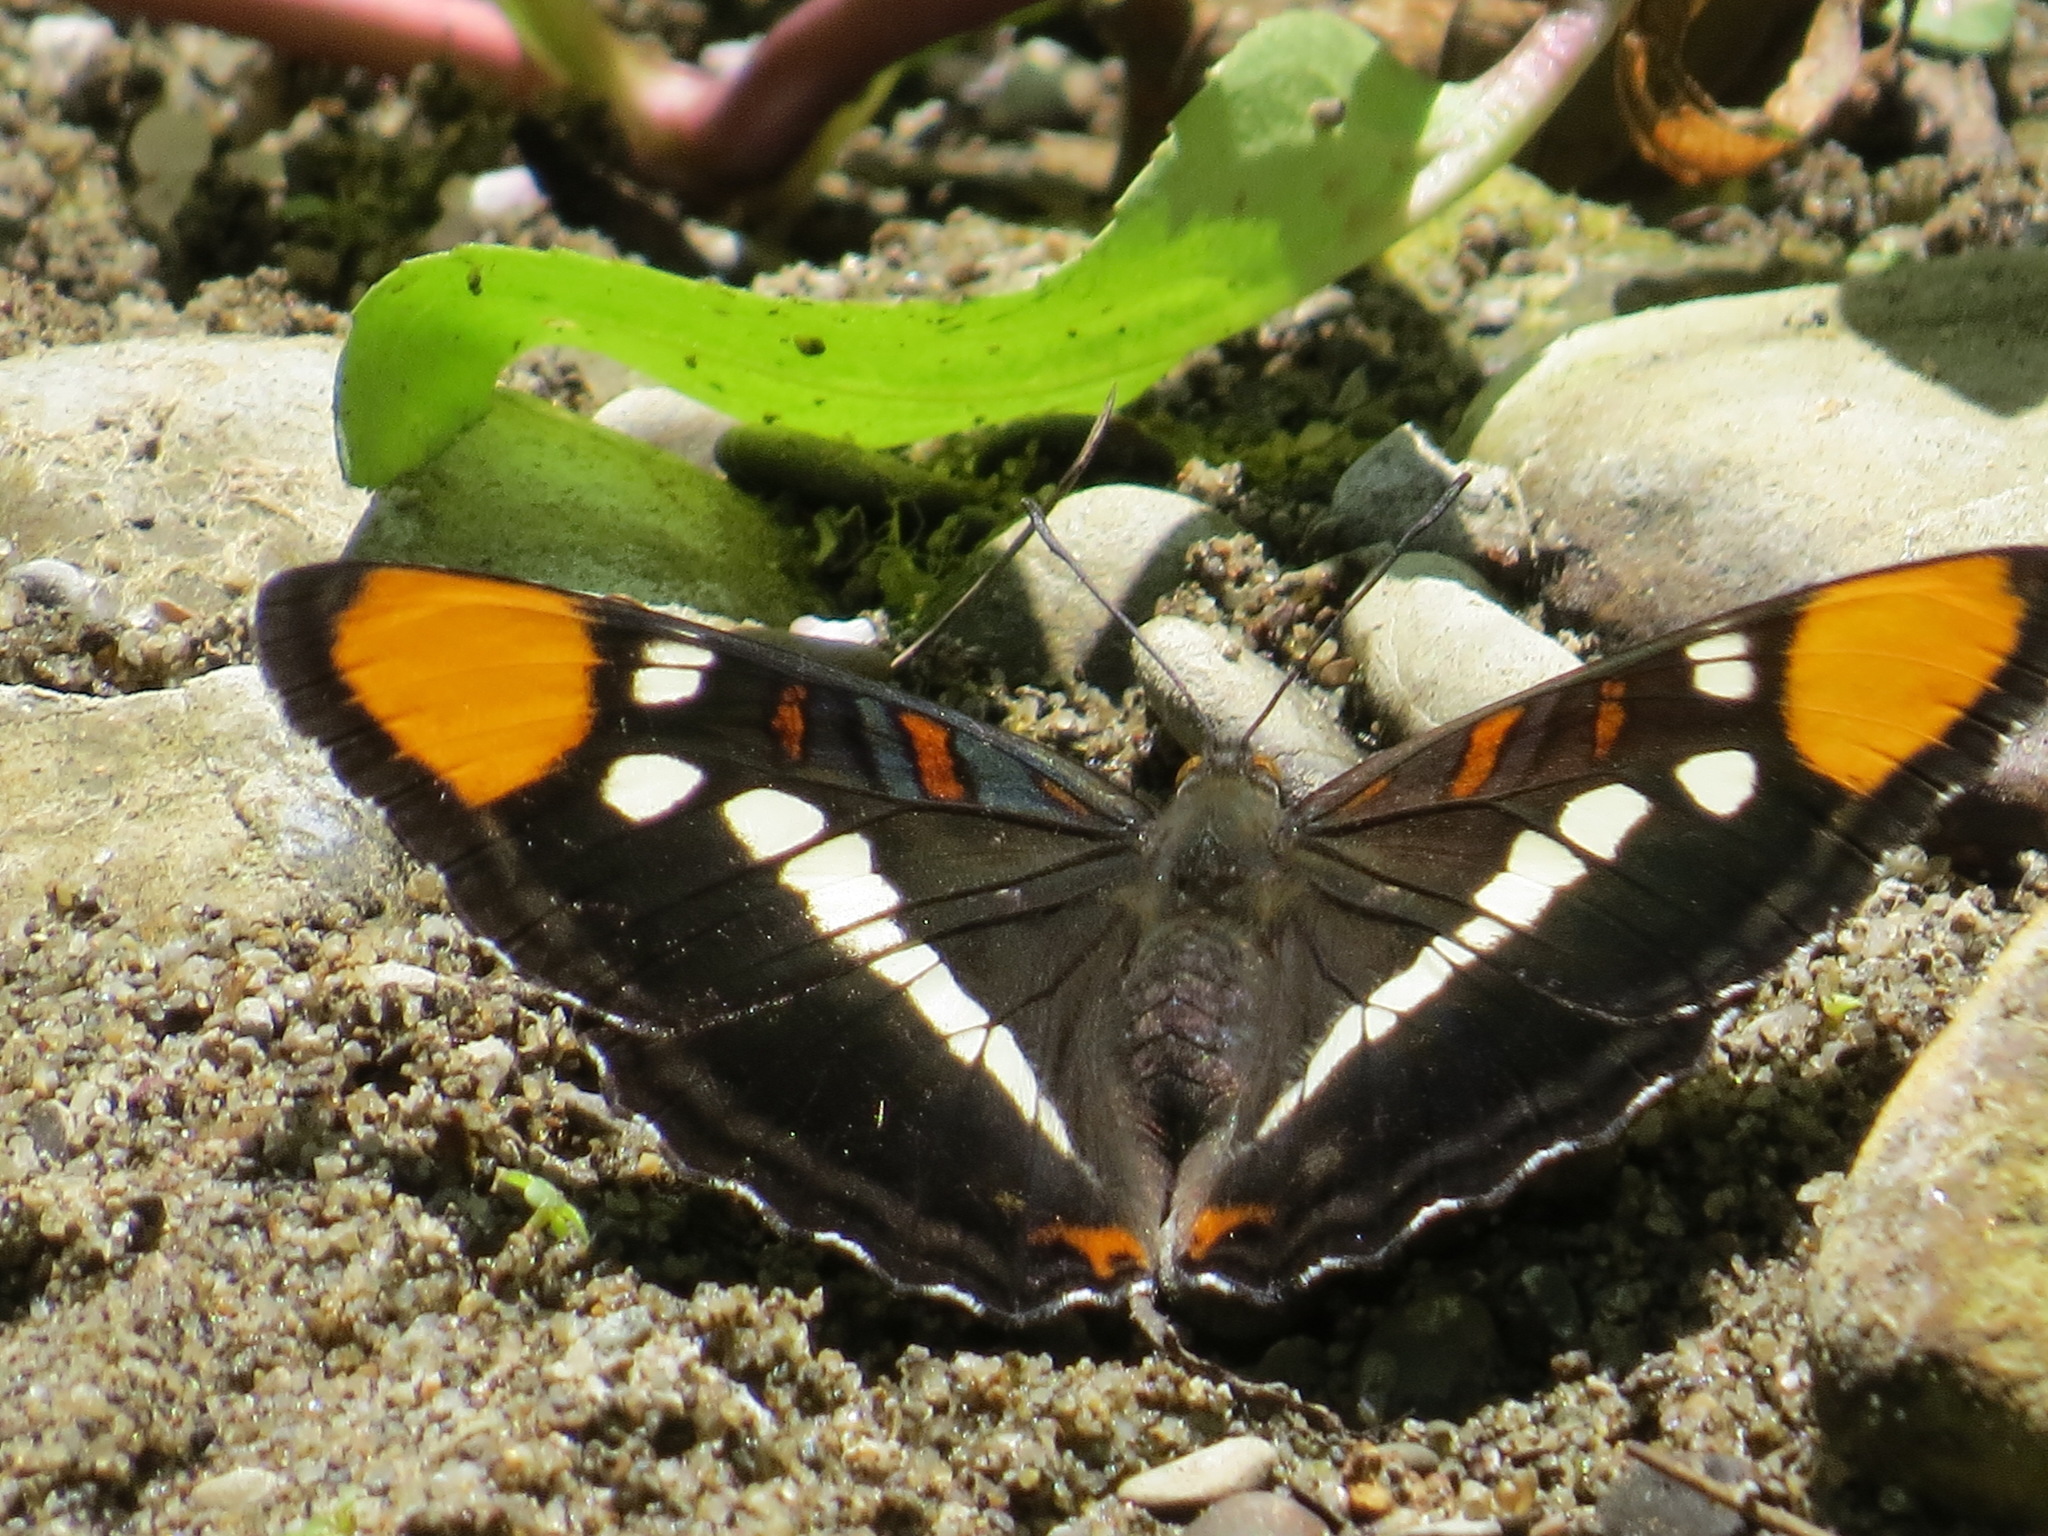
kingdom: Animalia
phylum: Arthropoda
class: Insecta
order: Lepidoptera
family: Nymphalidae
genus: Limenitis
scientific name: Limenitis bredowii
